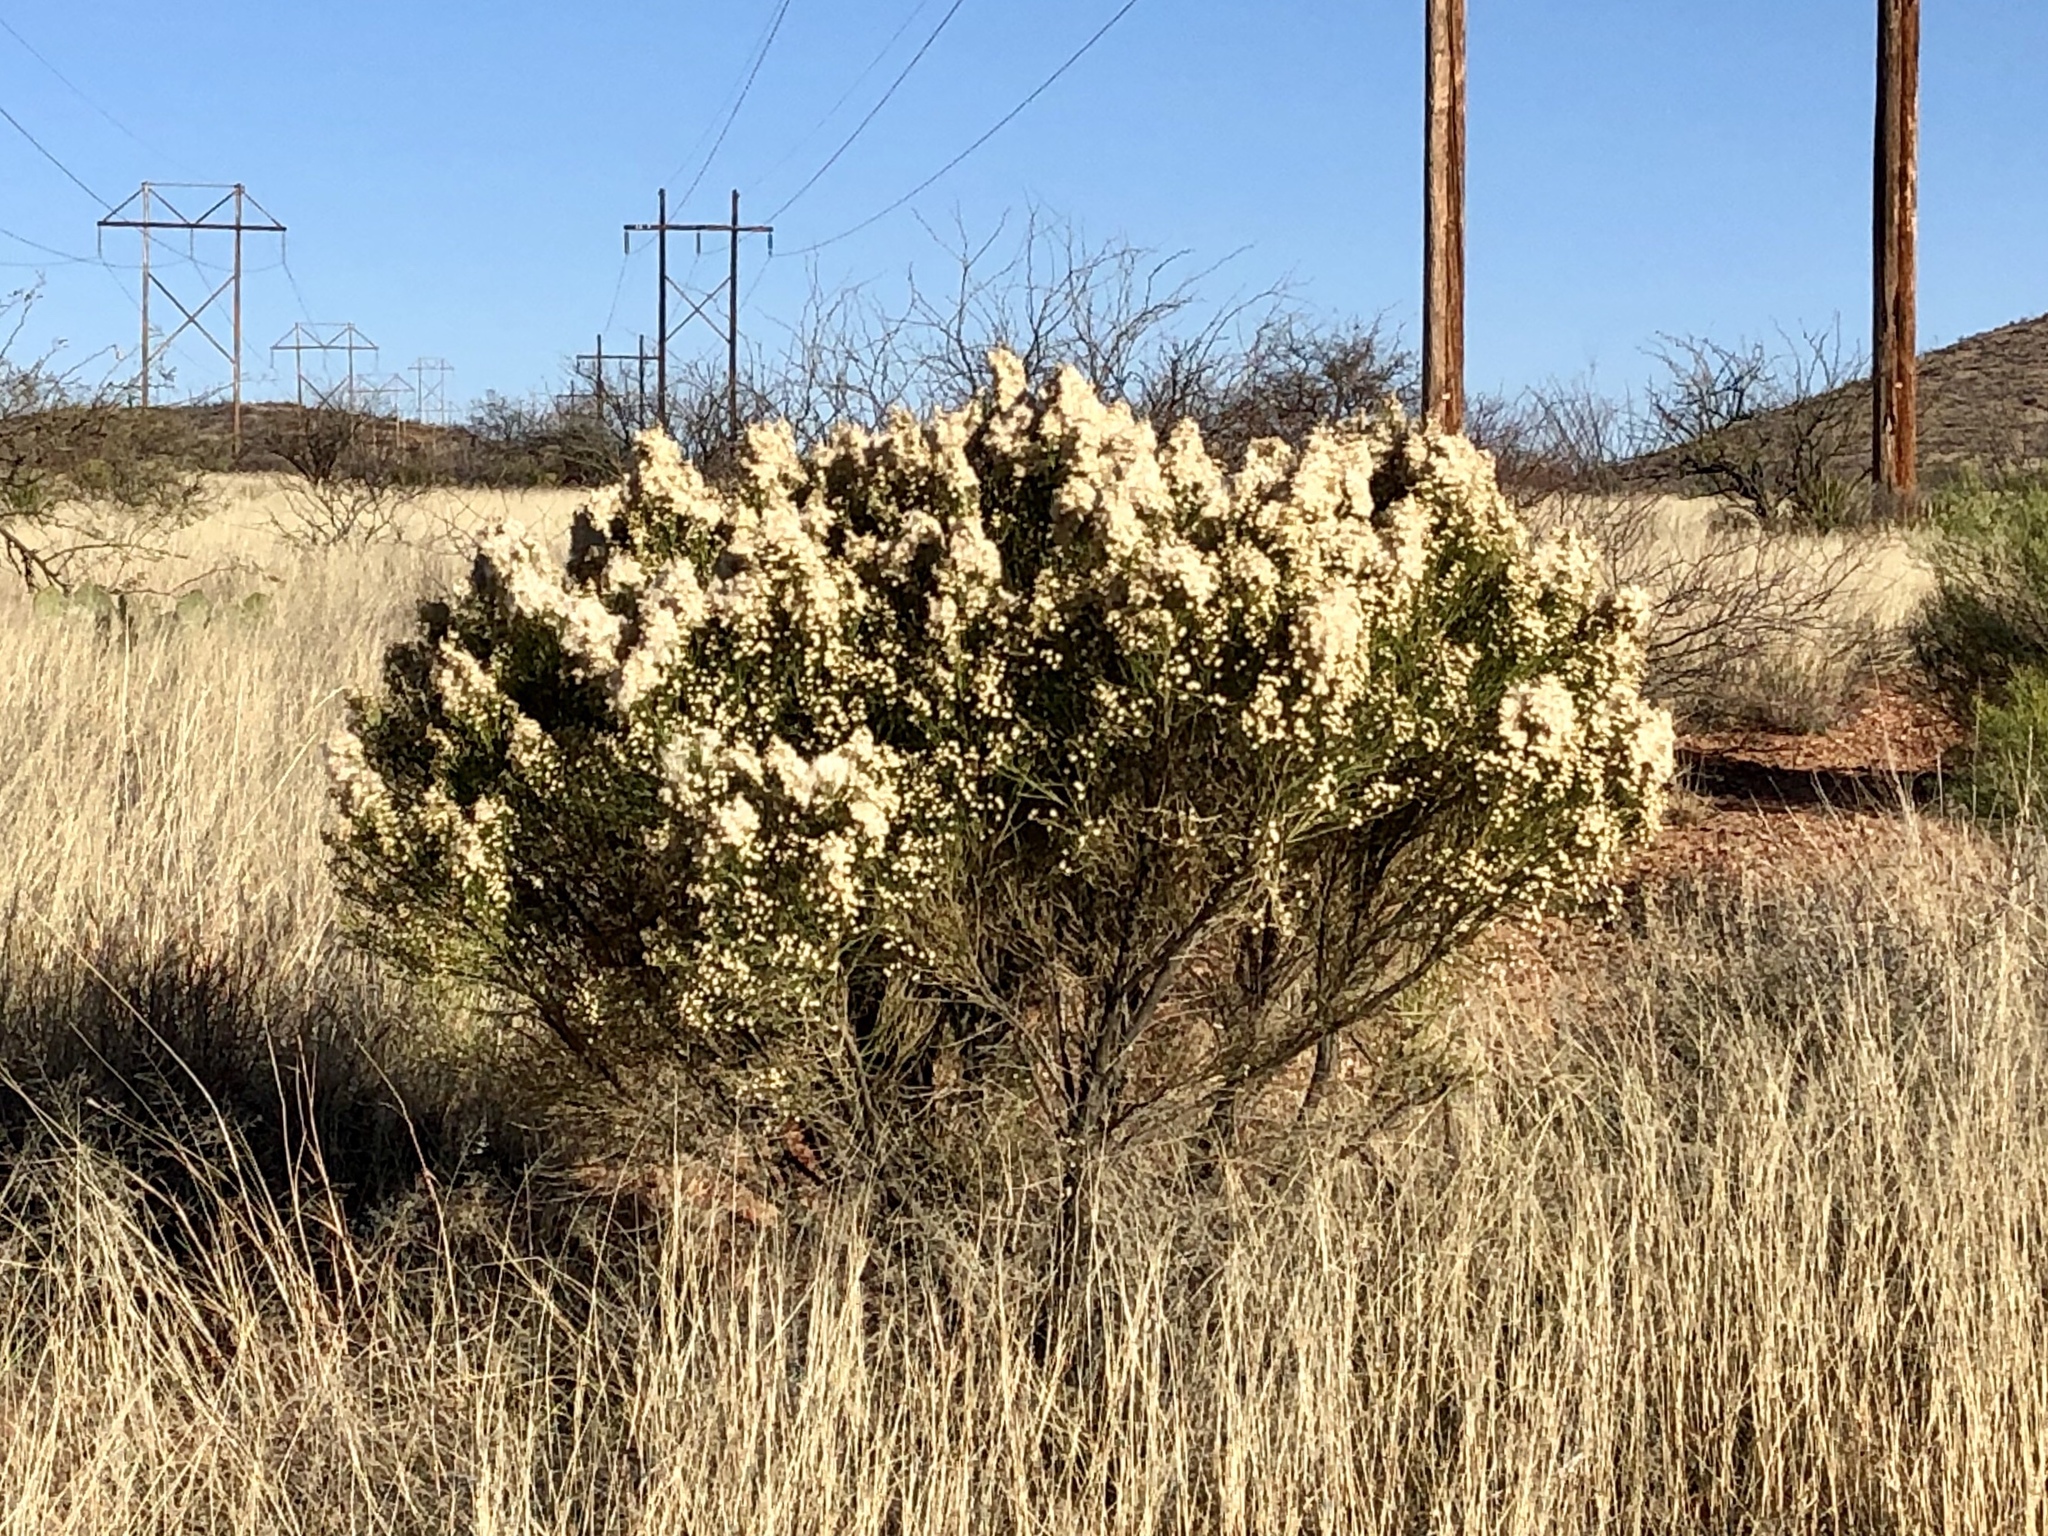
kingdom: Plantae
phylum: Tracheophyta
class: Magnoliopsida
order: Asterales
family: Asteraceae
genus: Baccharis
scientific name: Baccharis sarothroides
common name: Desert-broom
